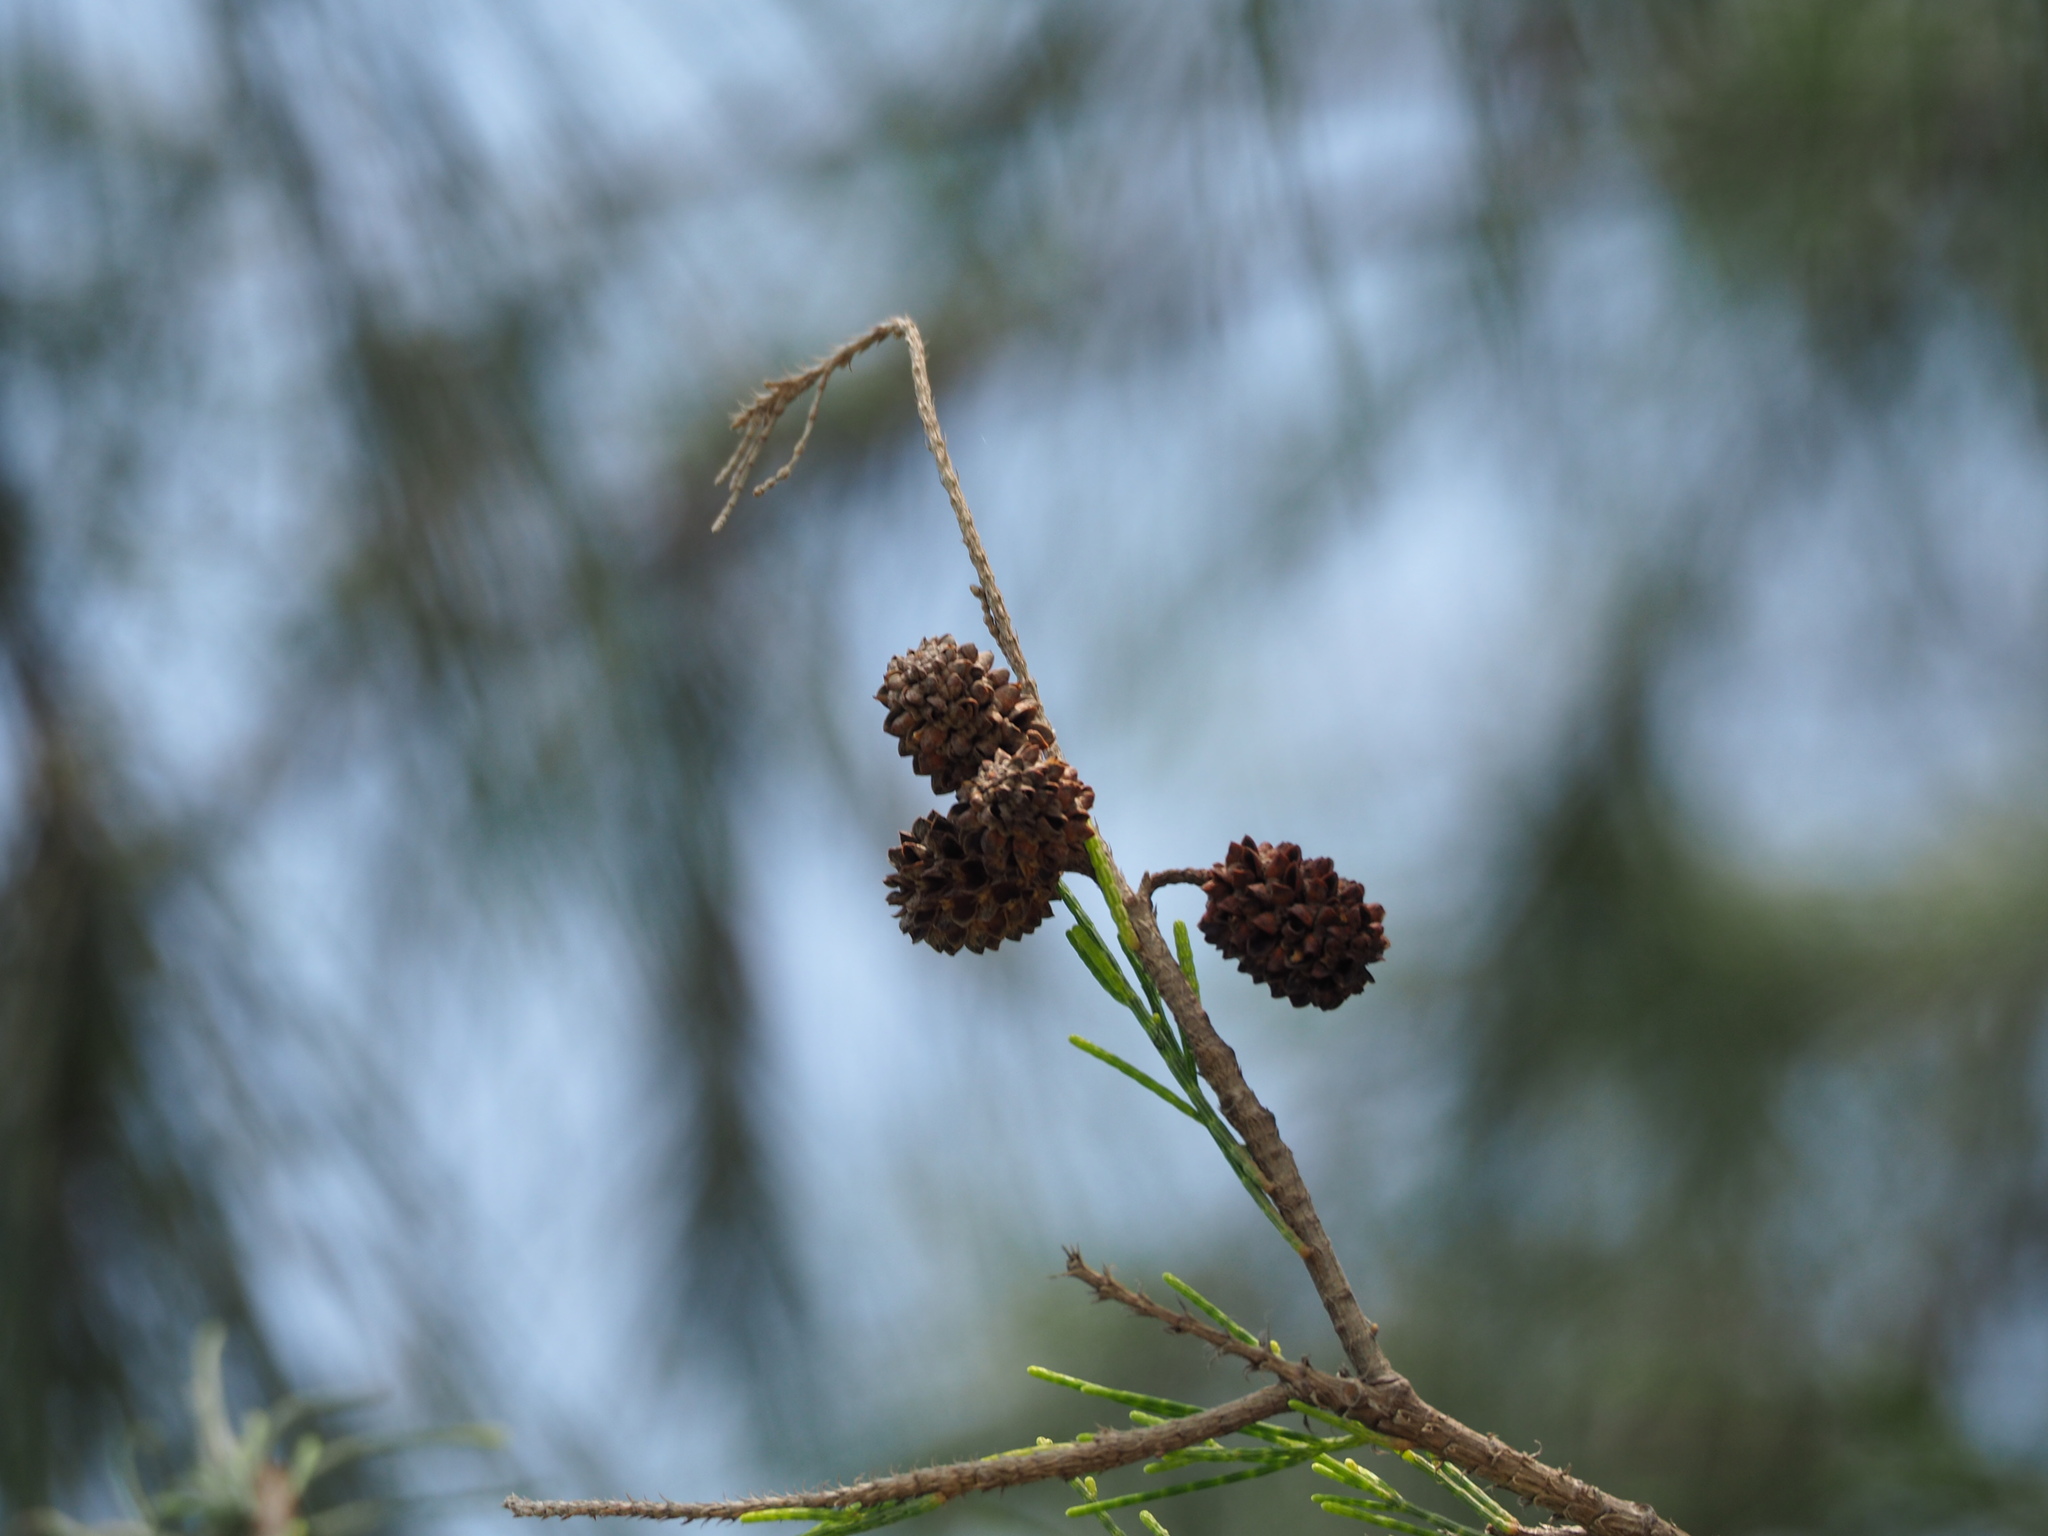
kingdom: Plantae
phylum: Tracheophyta
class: Magnoliopsida
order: Fagales
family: Casuarinaceae
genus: Casuarina
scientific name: Casuarina equisetifolia
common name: Beach sheoak
